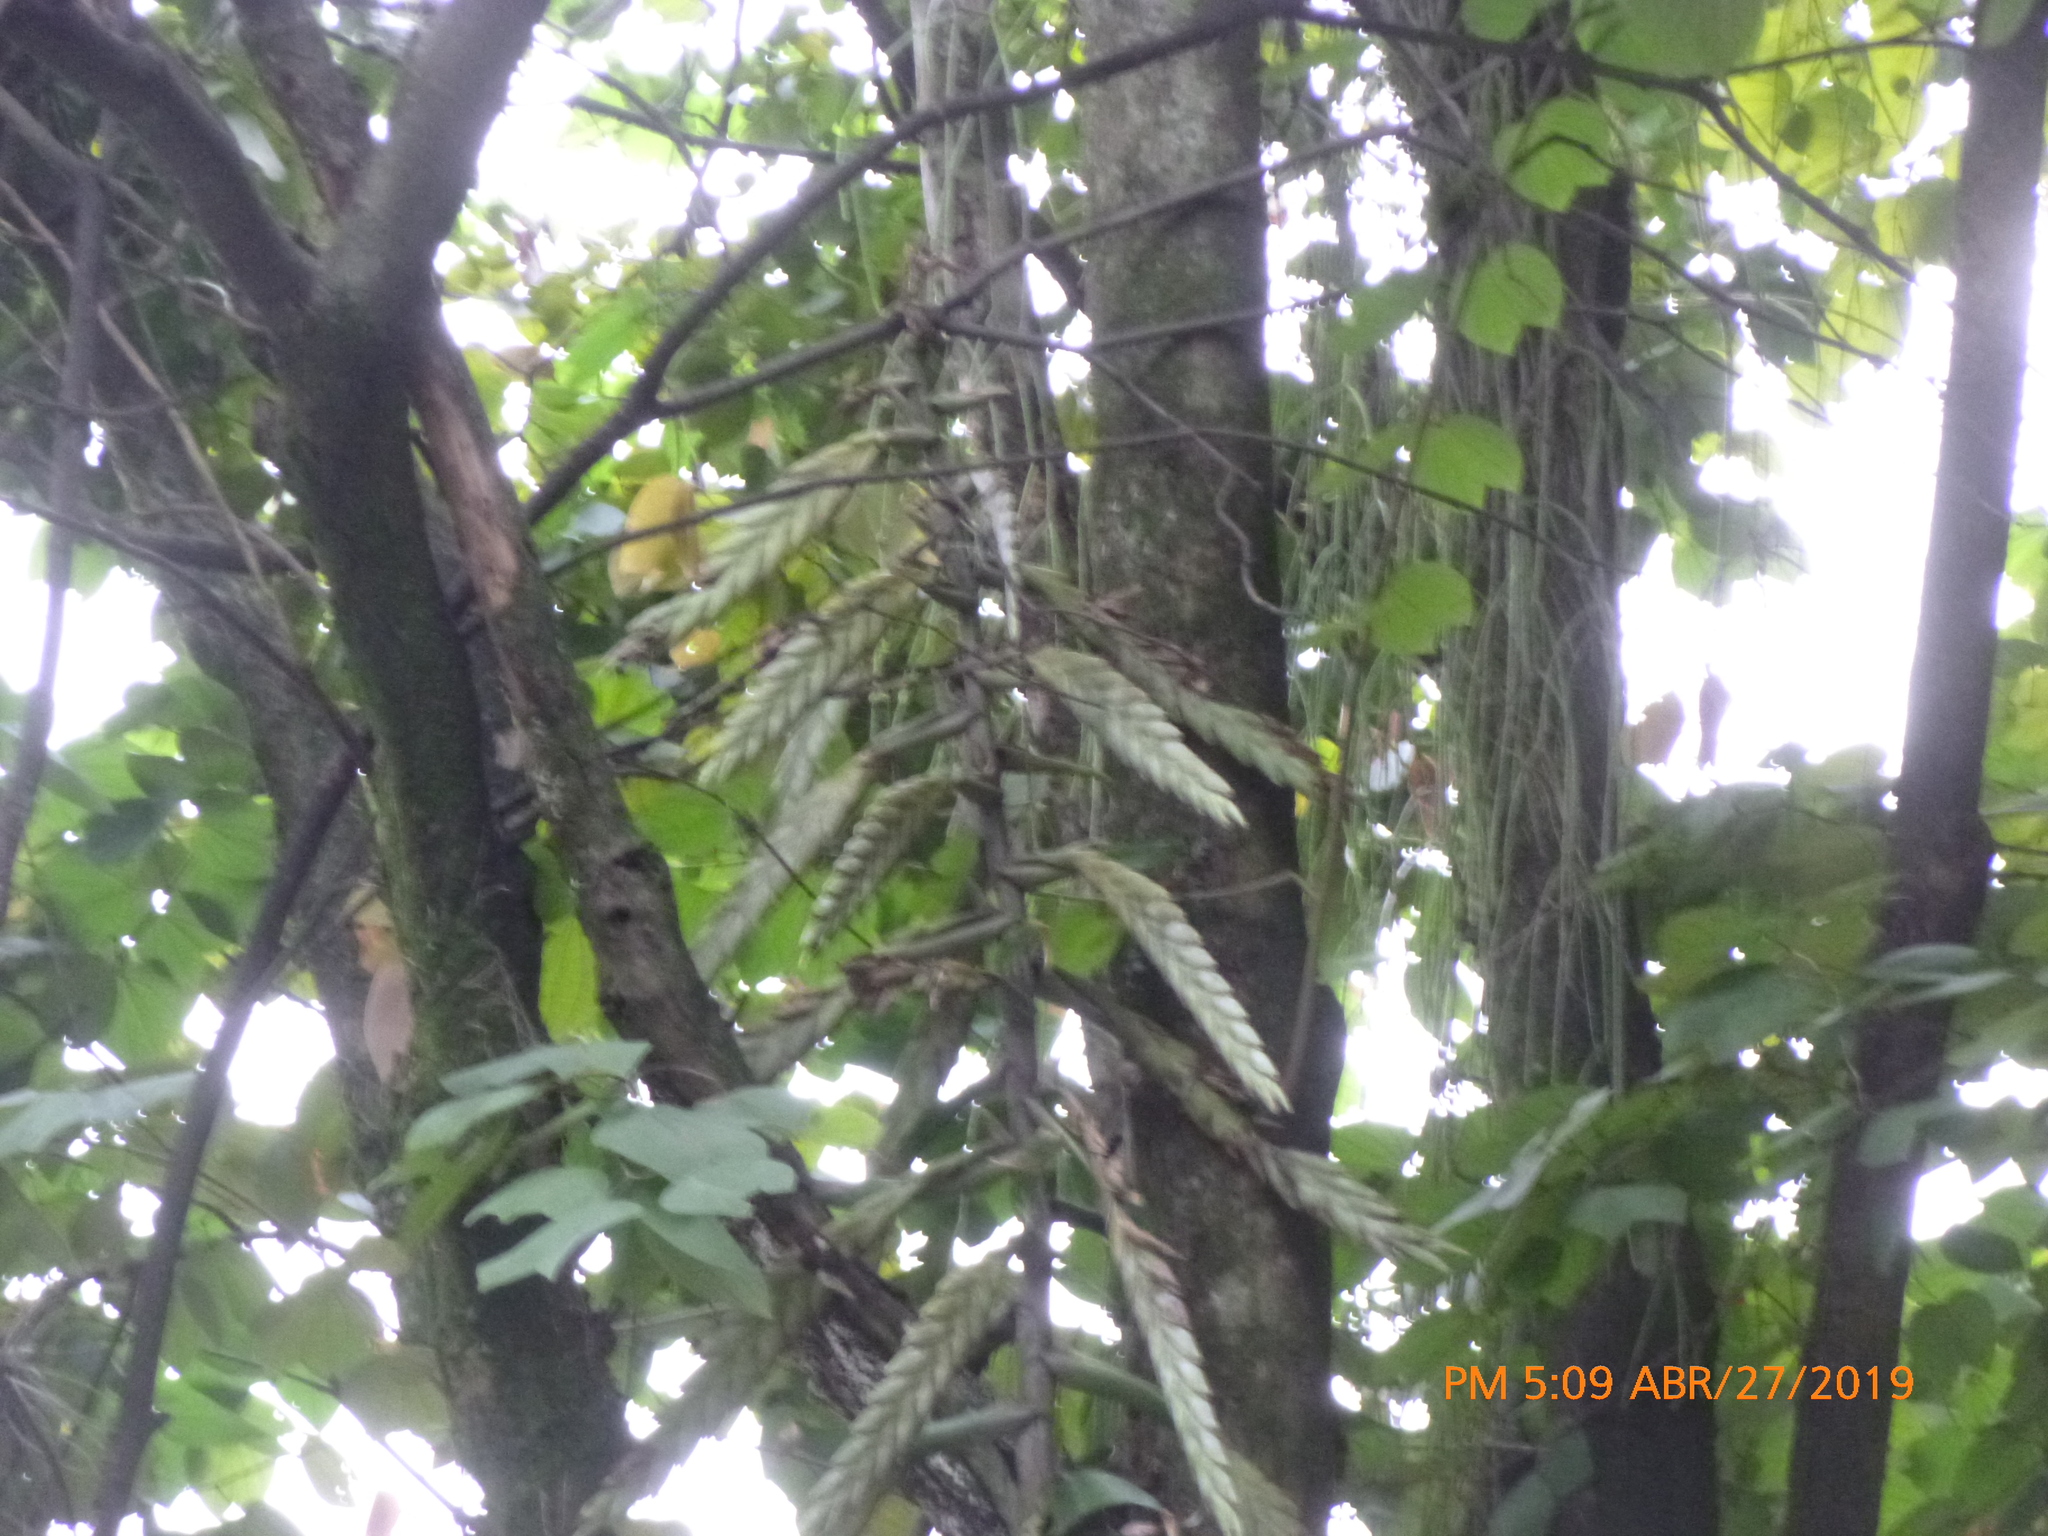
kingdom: Plantae
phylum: Tracheophyta
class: Liliopsida
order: Poales
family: Bromeliaceae
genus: Tillandsia
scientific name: Tillandsia fendleri
